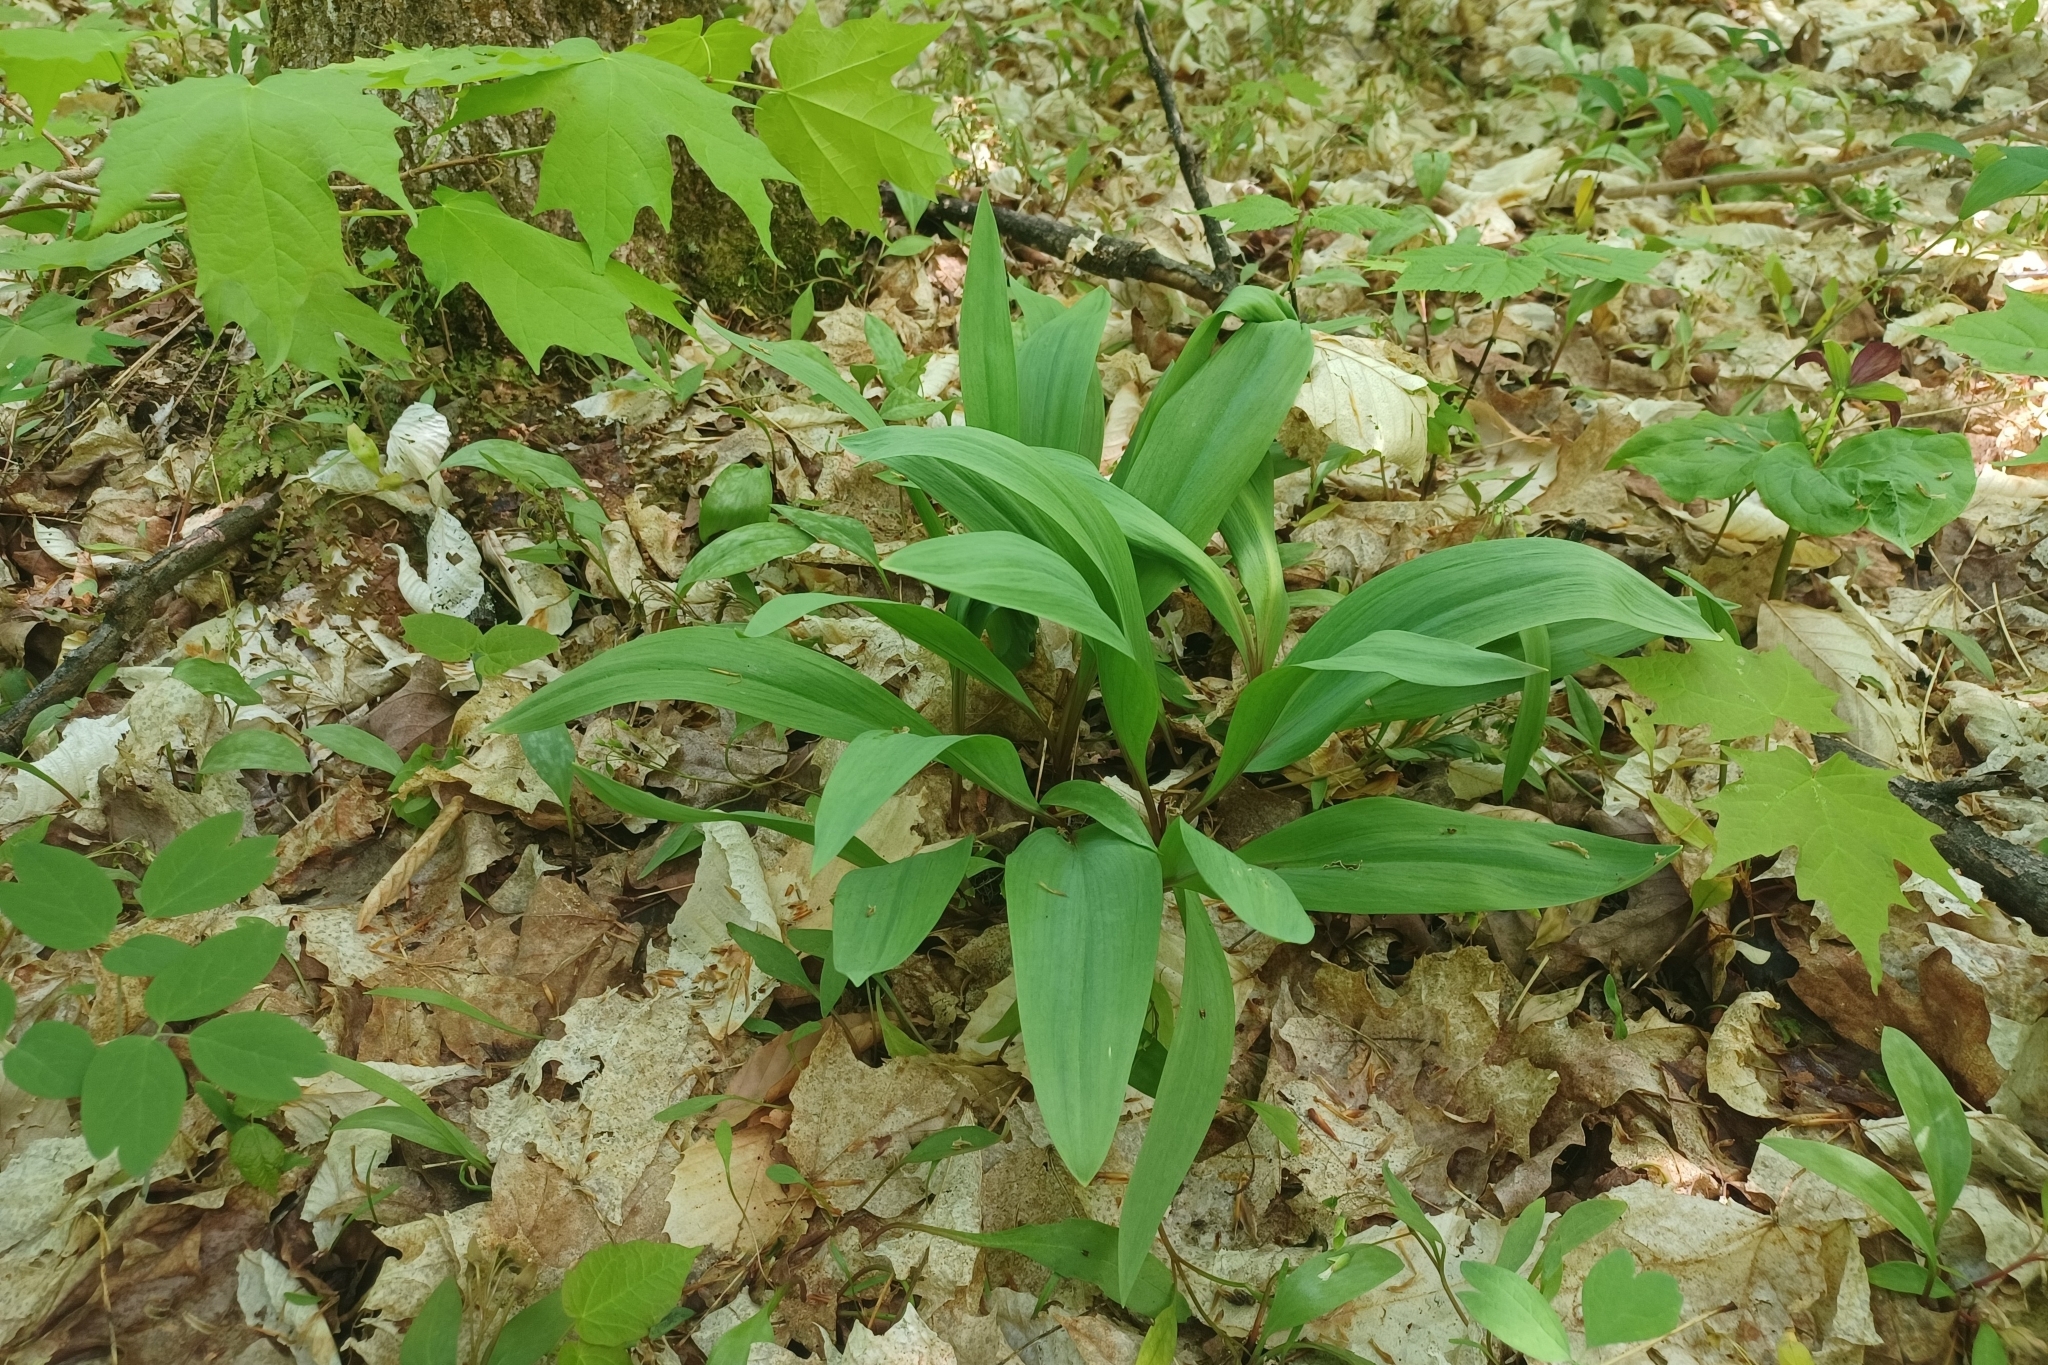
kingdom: Plantae
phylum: Tracheophyta
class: Liliopsida
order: Asparagales
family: Amaryllidaceae
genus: Allium
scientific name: Allium tricoccum
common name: Ramp
